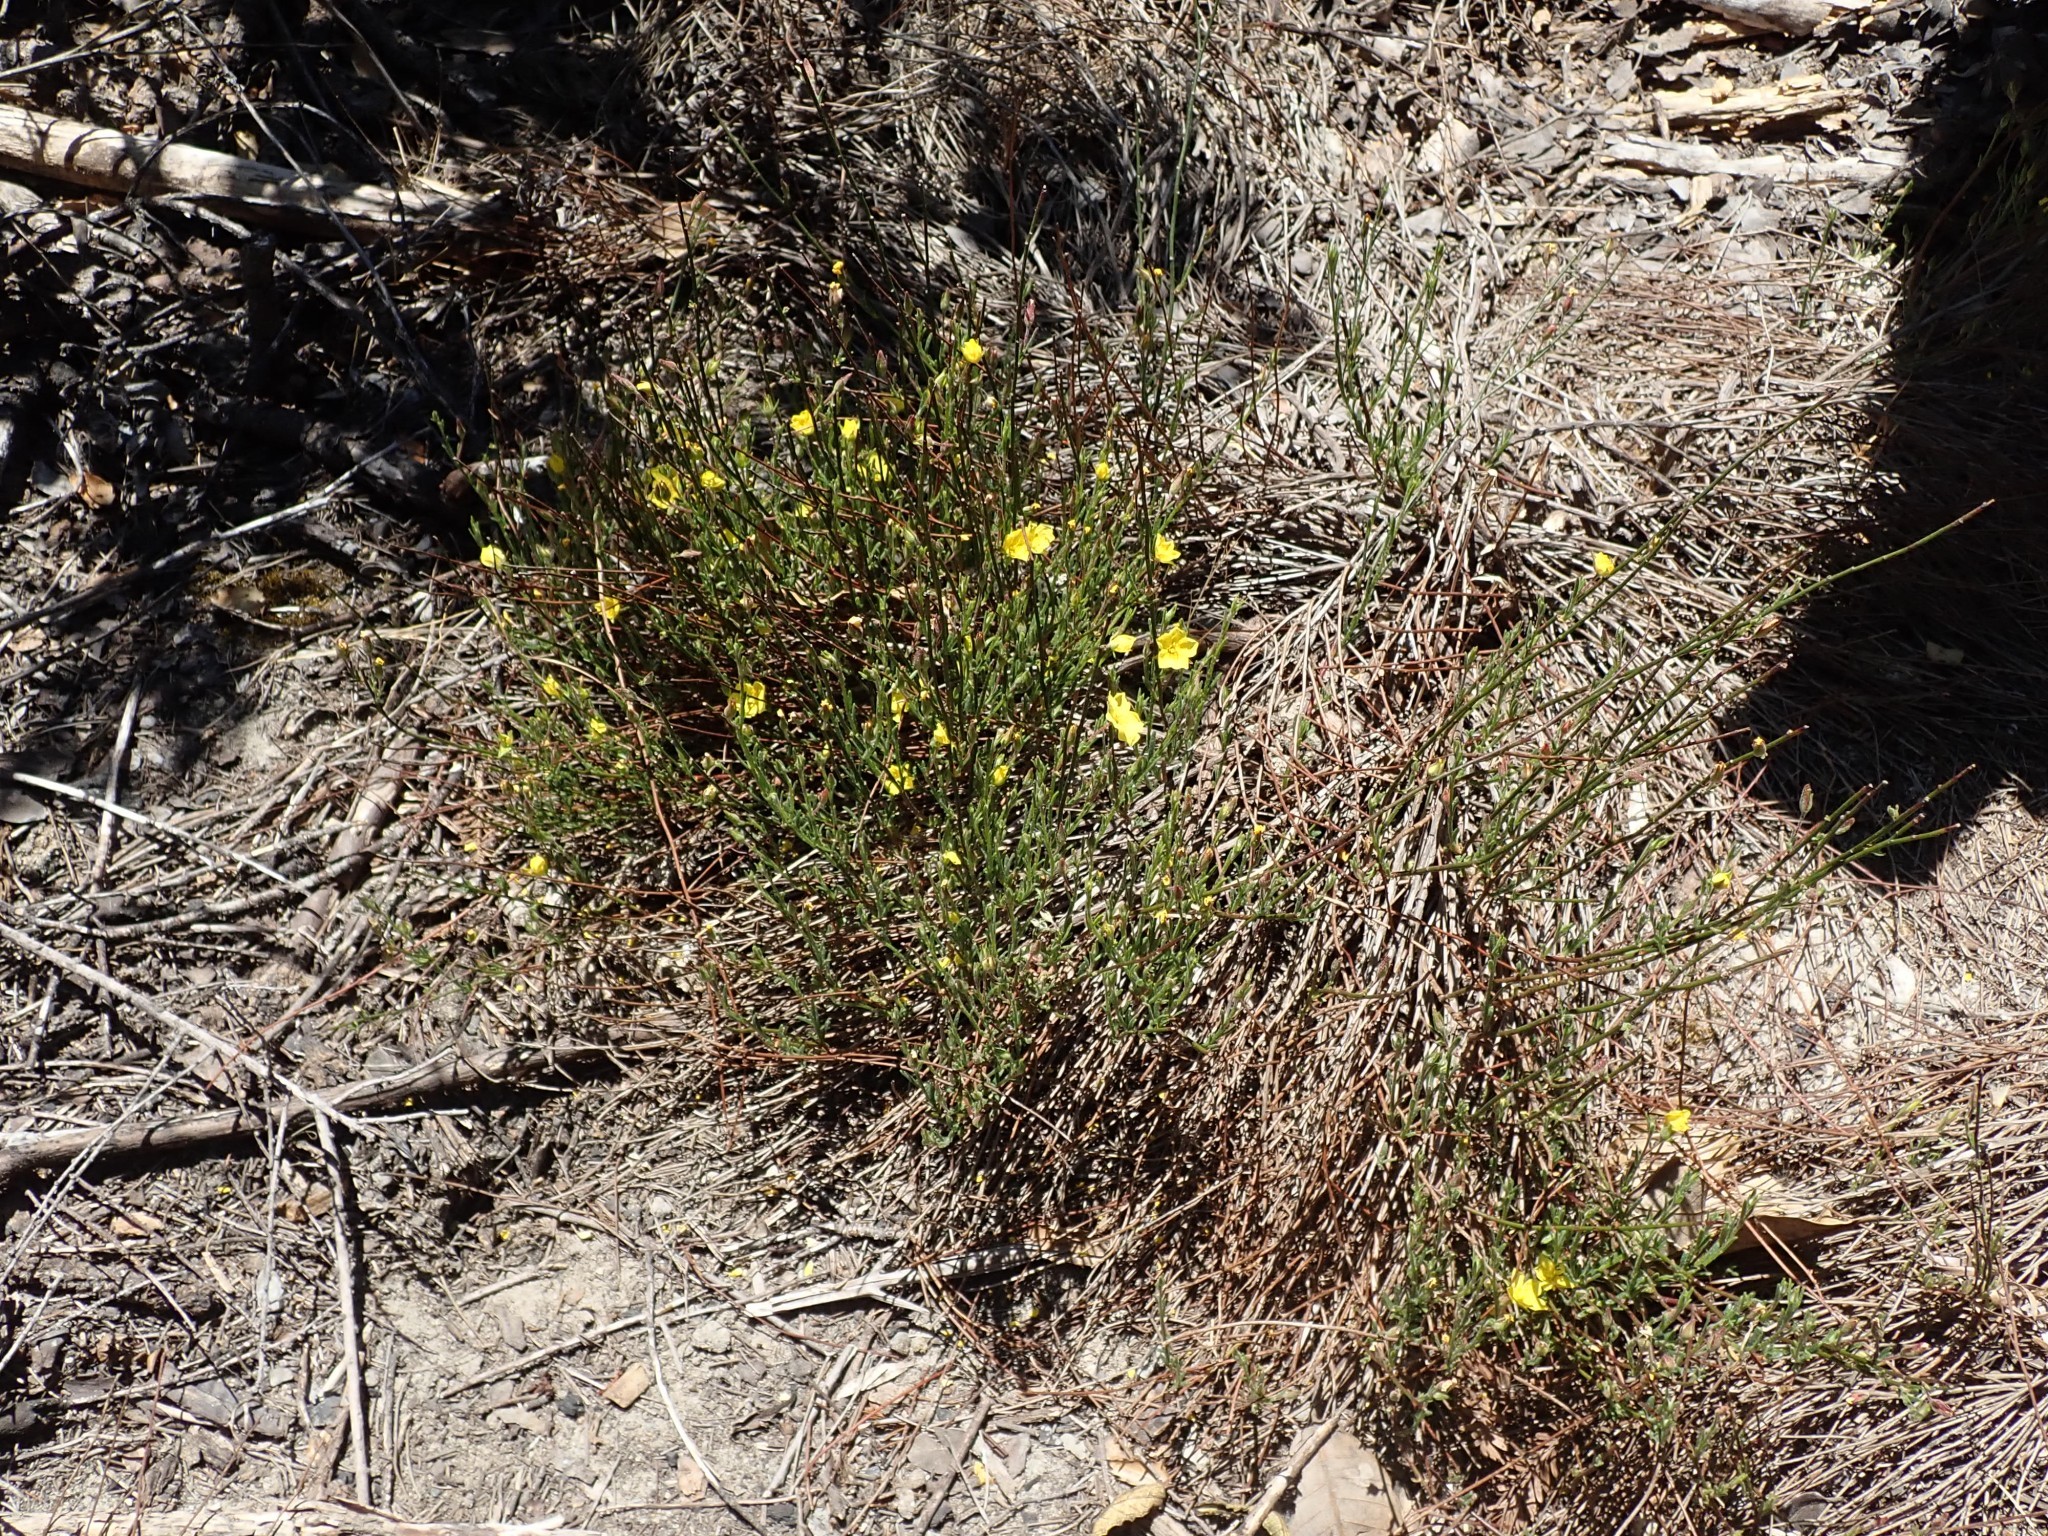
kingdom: Plantae
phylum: Tracheophyta
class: Magnoliopsida
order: Malvales
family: Cistaceae
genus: Crocanthemum
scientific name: Crocanthemum scoparium
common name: Broom-rose
